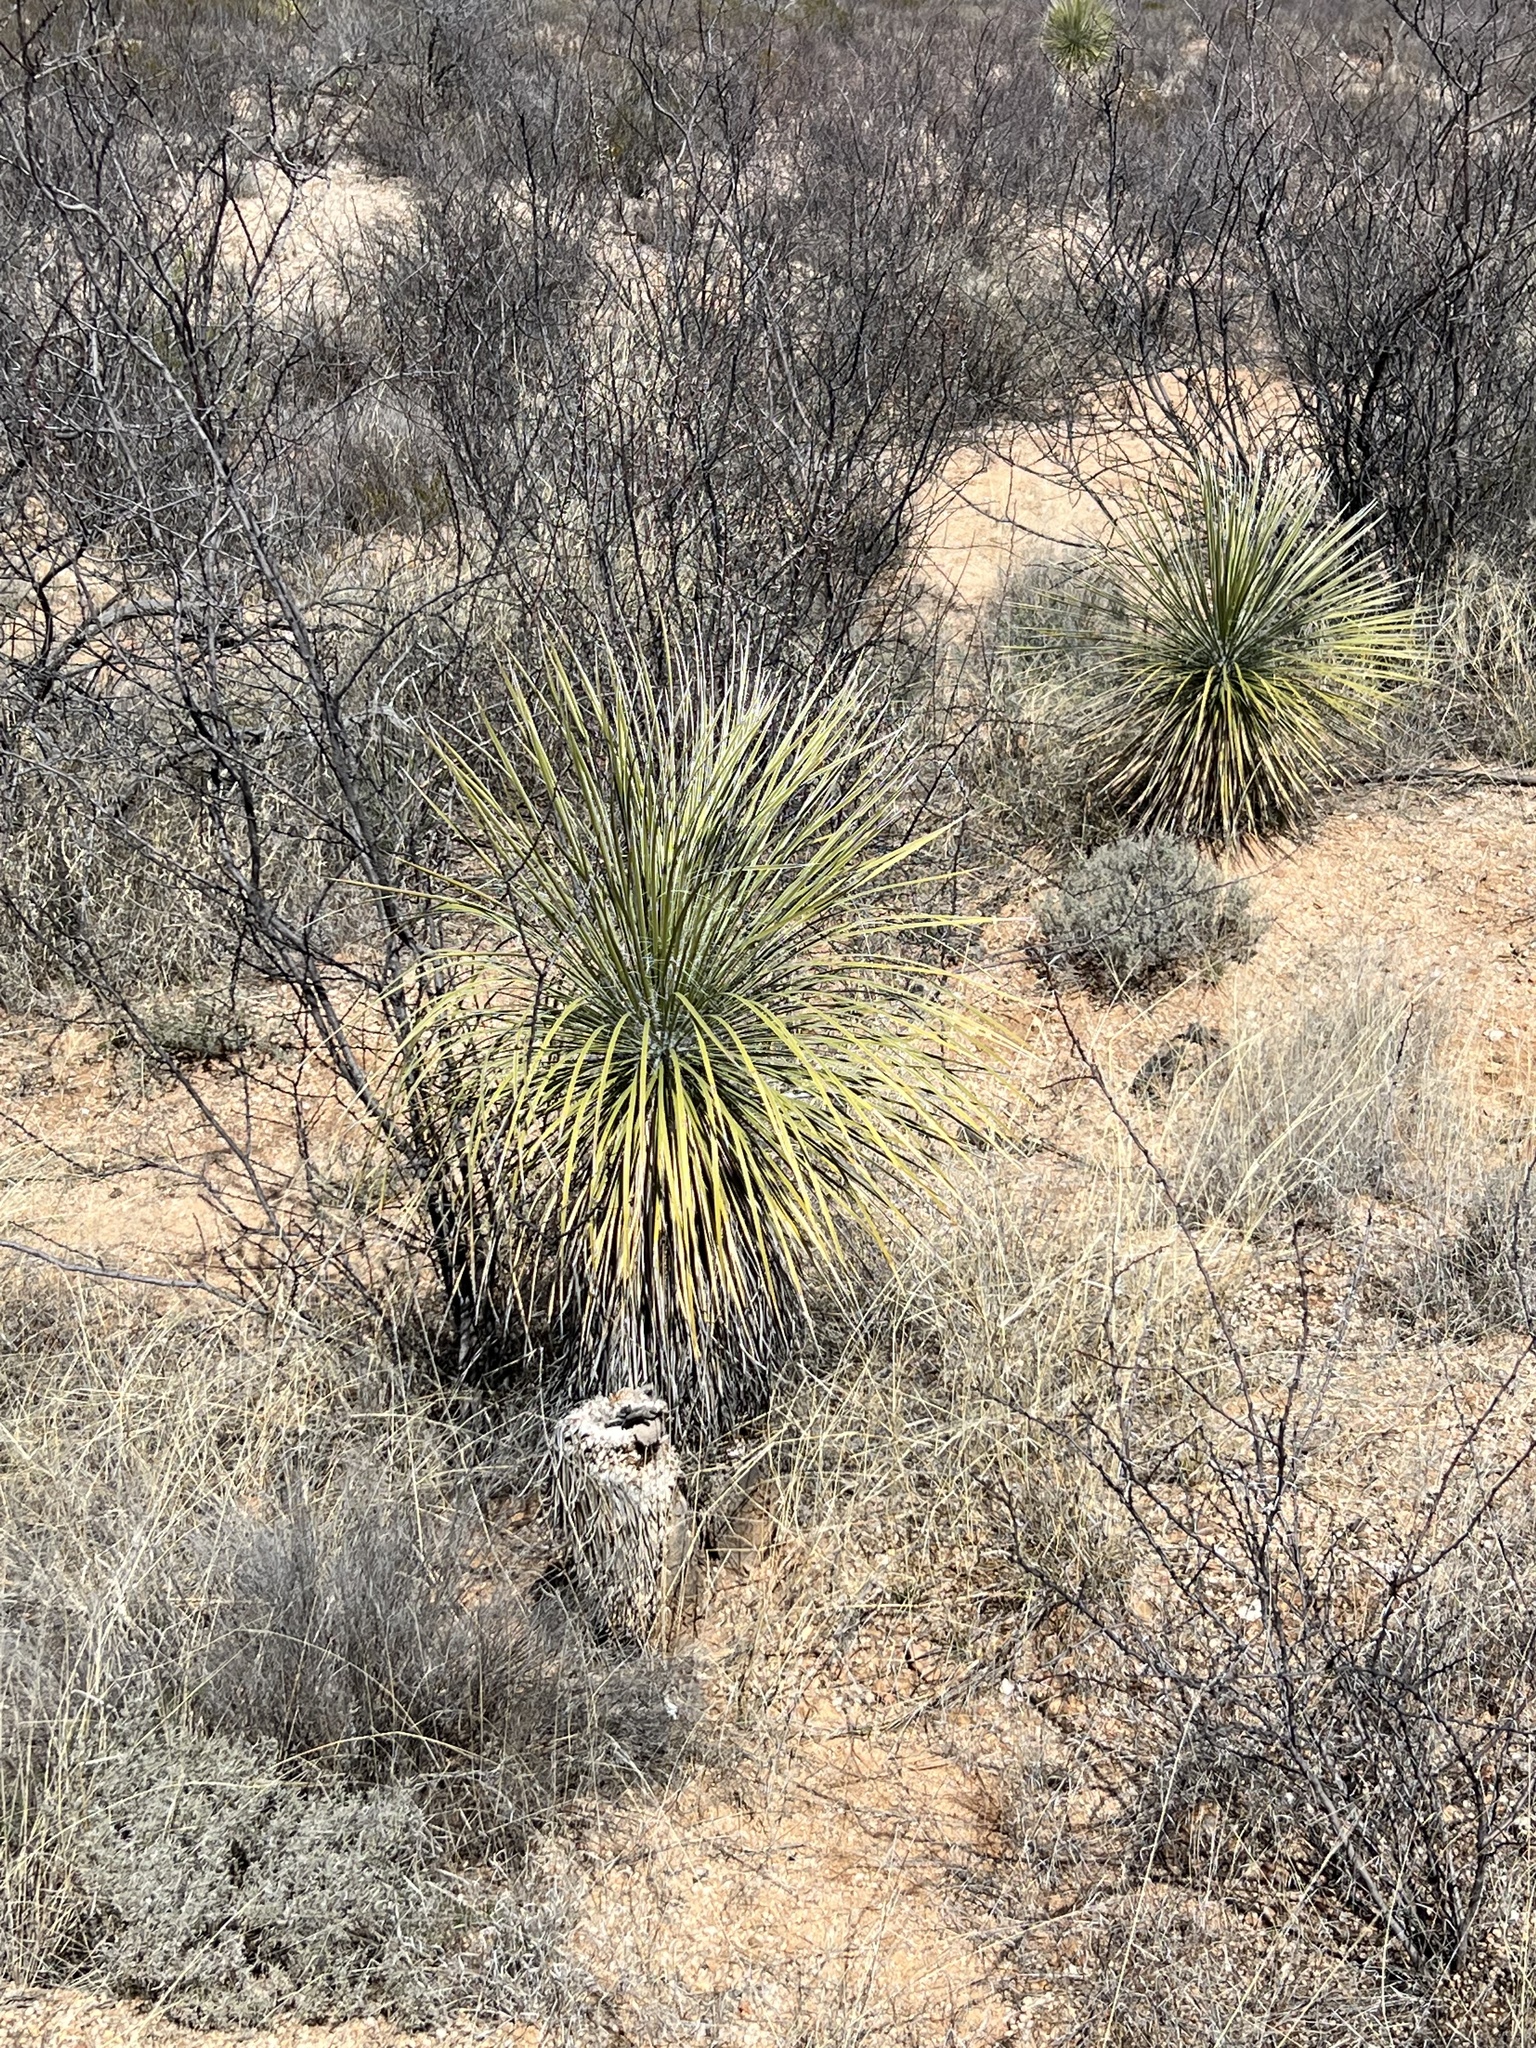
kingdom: Plantae
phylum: Tracheophyta
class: Liliopsida
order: Asparagales
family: Asparagaceae
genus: Yucca
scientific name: Yucca elata
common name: Palmella
